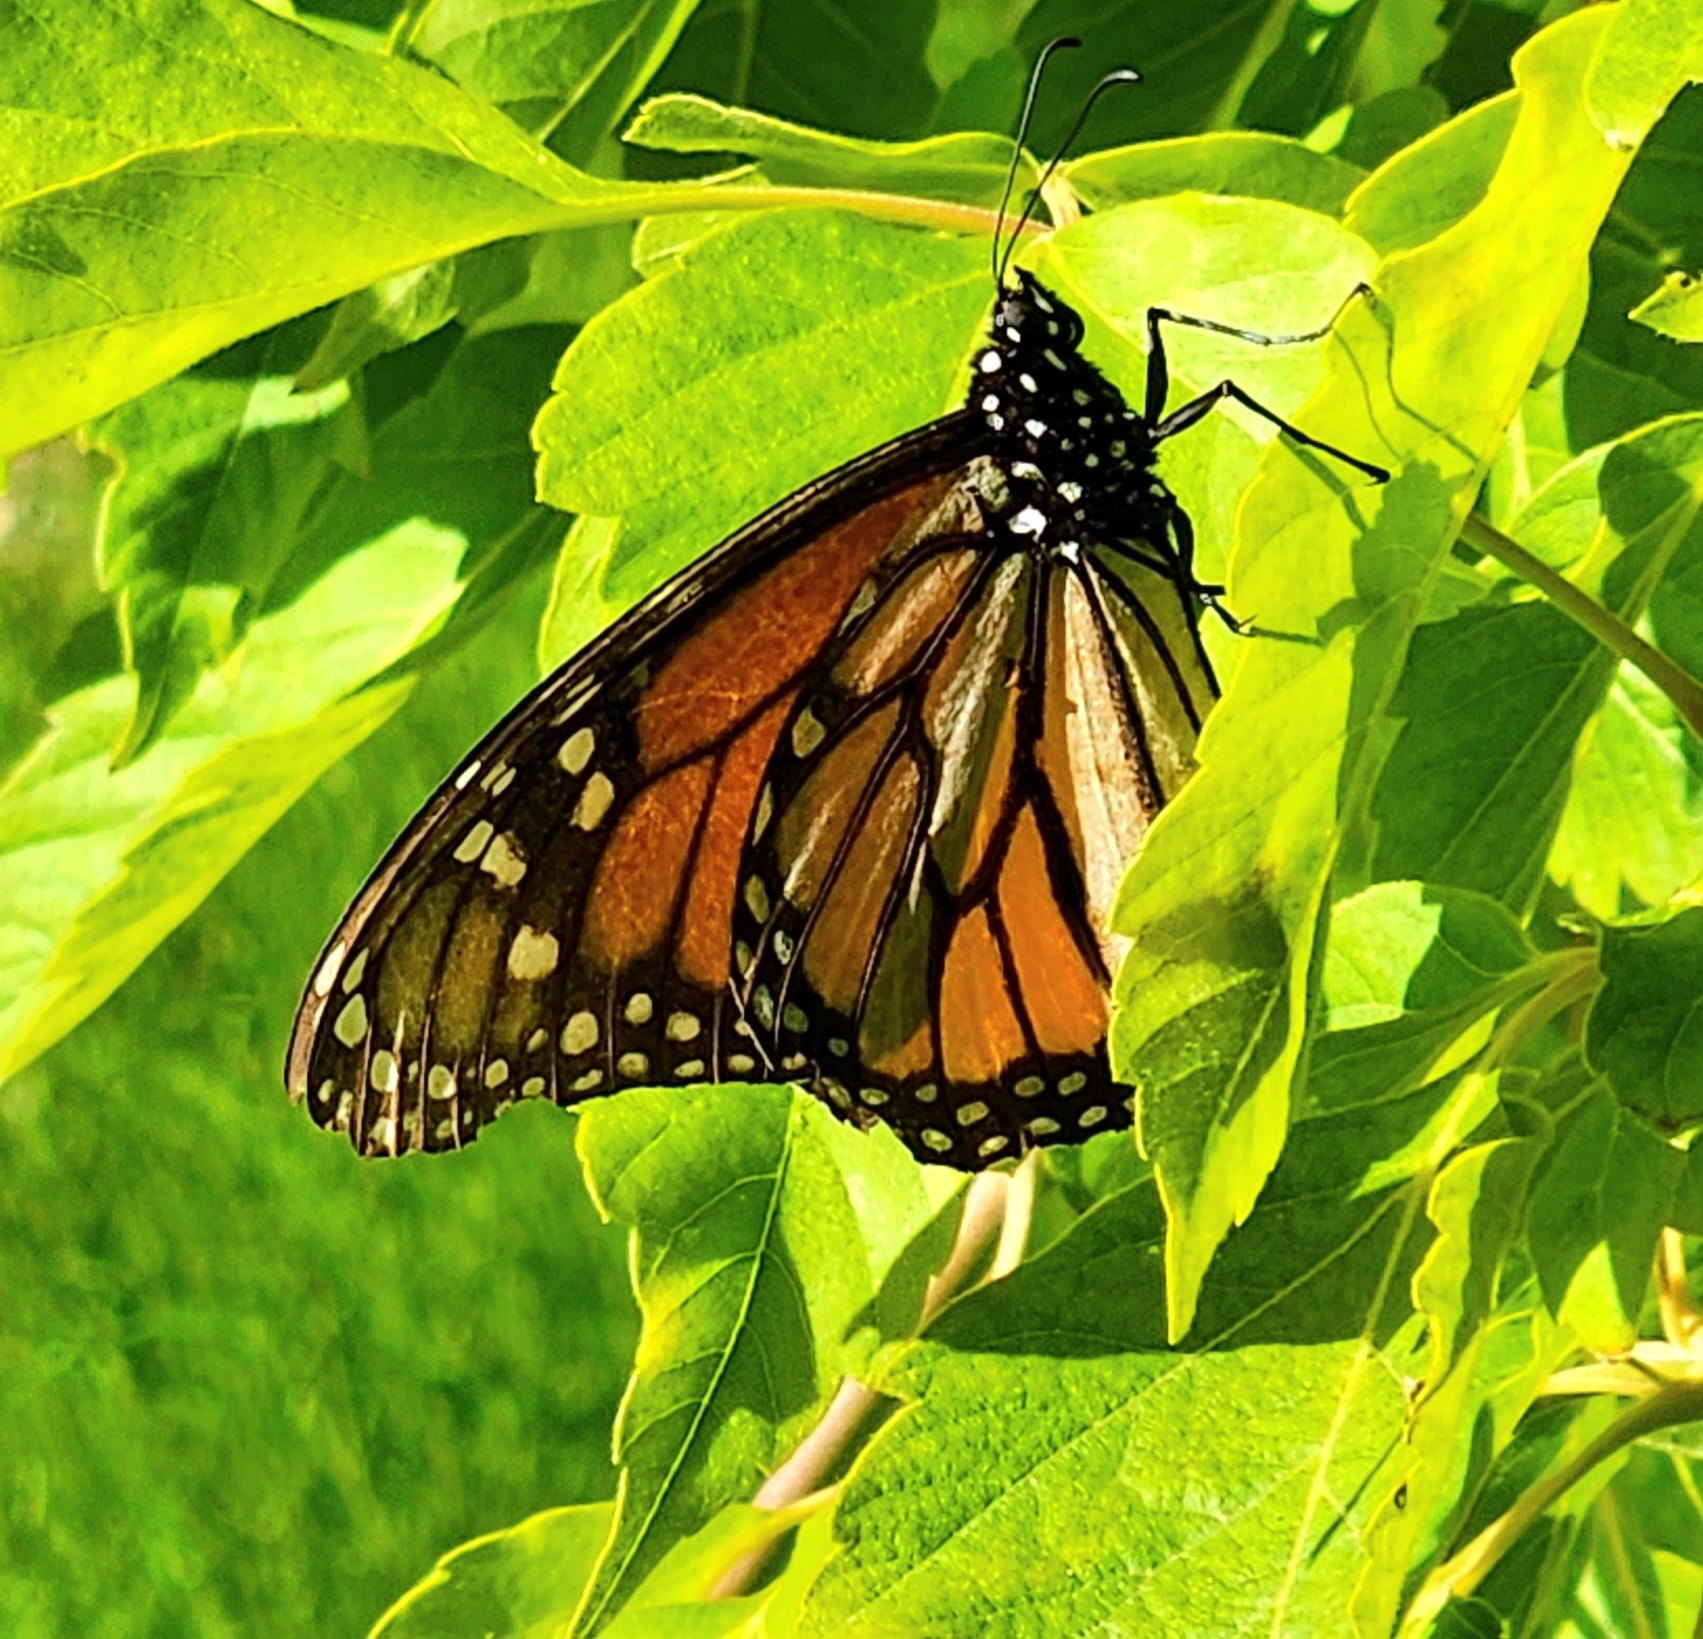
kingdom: Animalia
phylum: Arthropoda
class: Insecta
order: Lepidoptera
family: Nymphalidae
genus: Danaus
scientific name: Danaus plexippus
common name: Monarch
